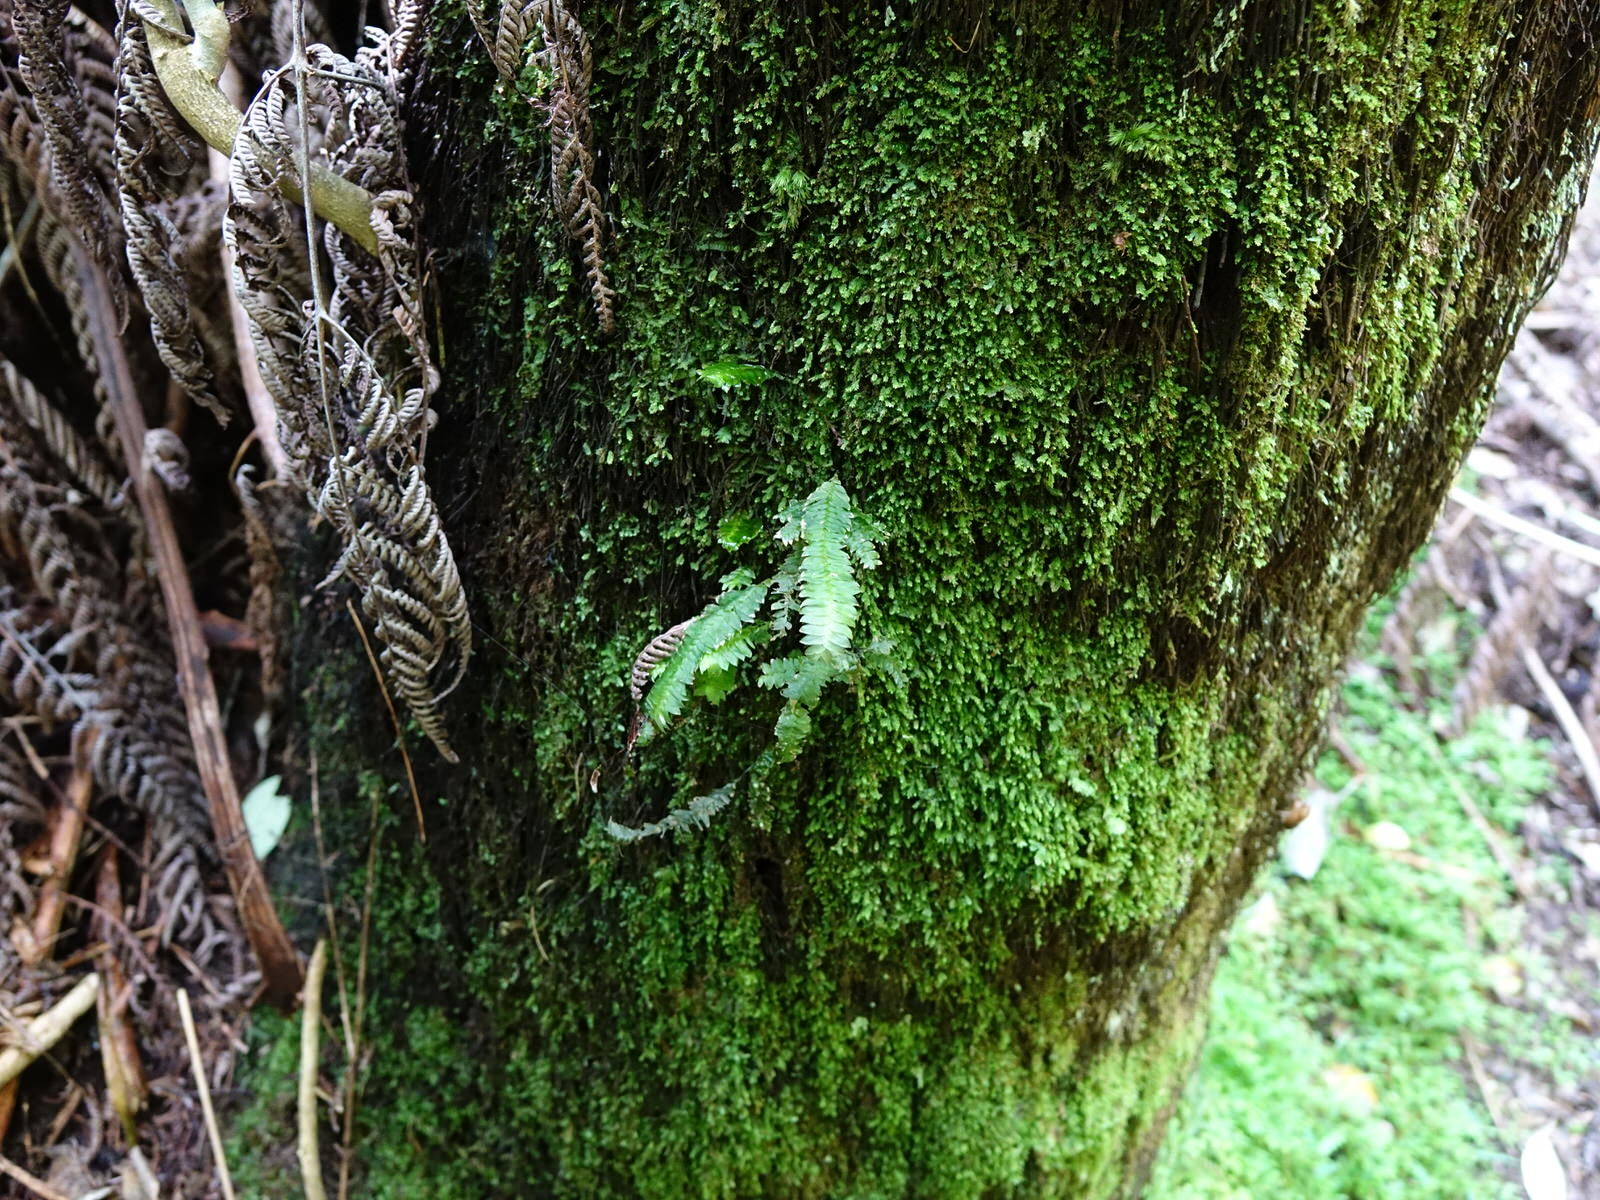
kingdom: Plantae
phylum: Bryophyta
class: Bryopsida
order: Hypopterygiales
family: Hypopterygiaceae
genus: Cyathophorum
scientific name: Cyathophorum bulbosum
